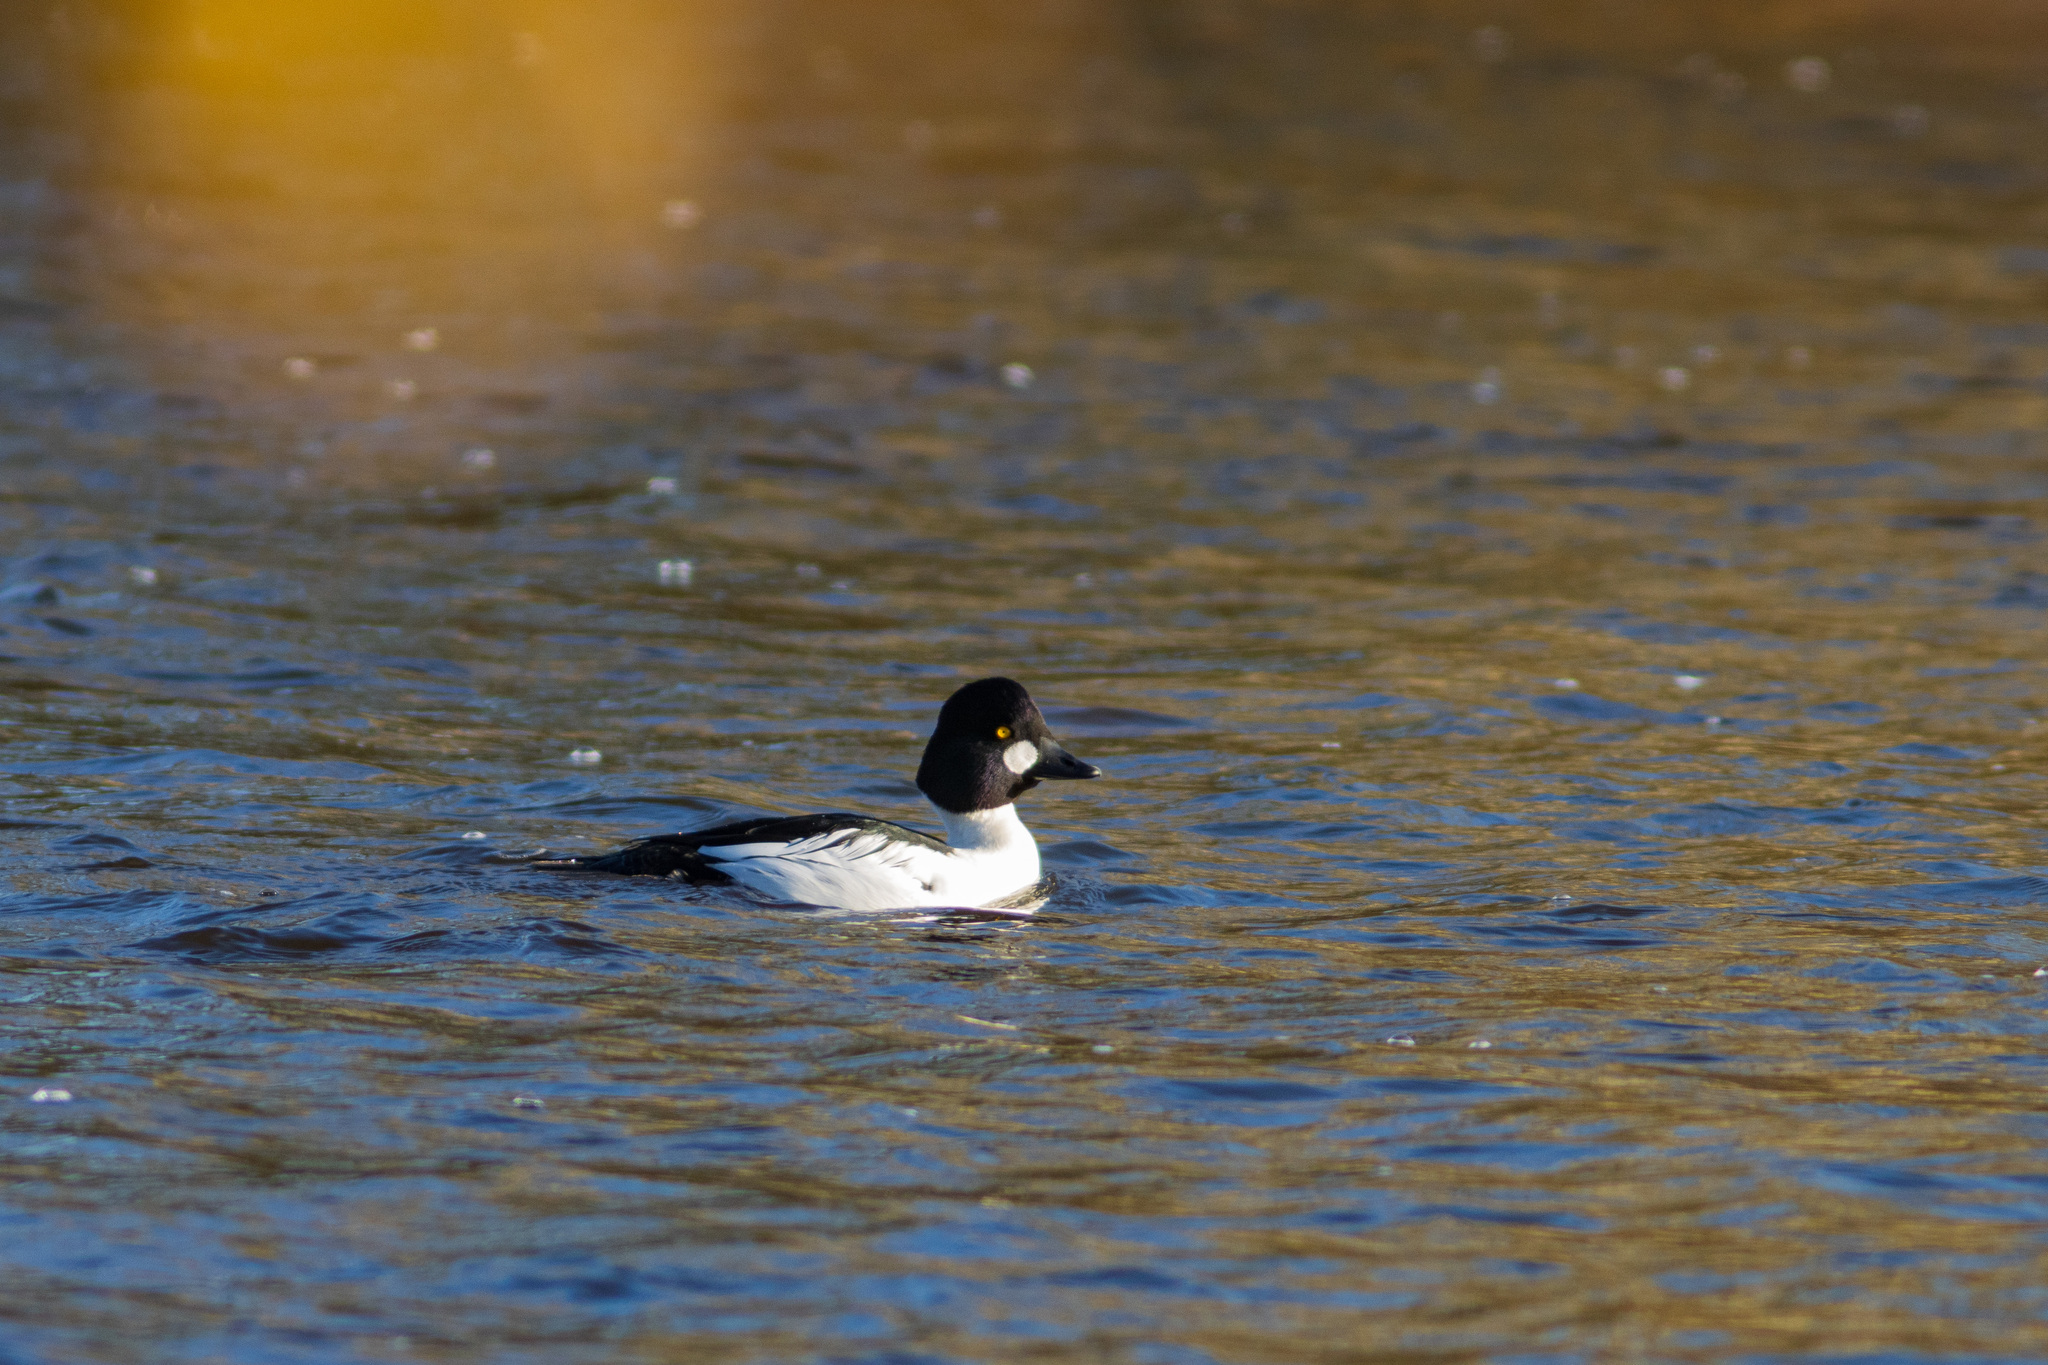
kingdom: Animalia
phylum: Chordata
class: Aves
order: Anseriformes
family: Anatidae
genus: Bucephala
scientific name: Bucephala clangula
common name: Common goldeneye
